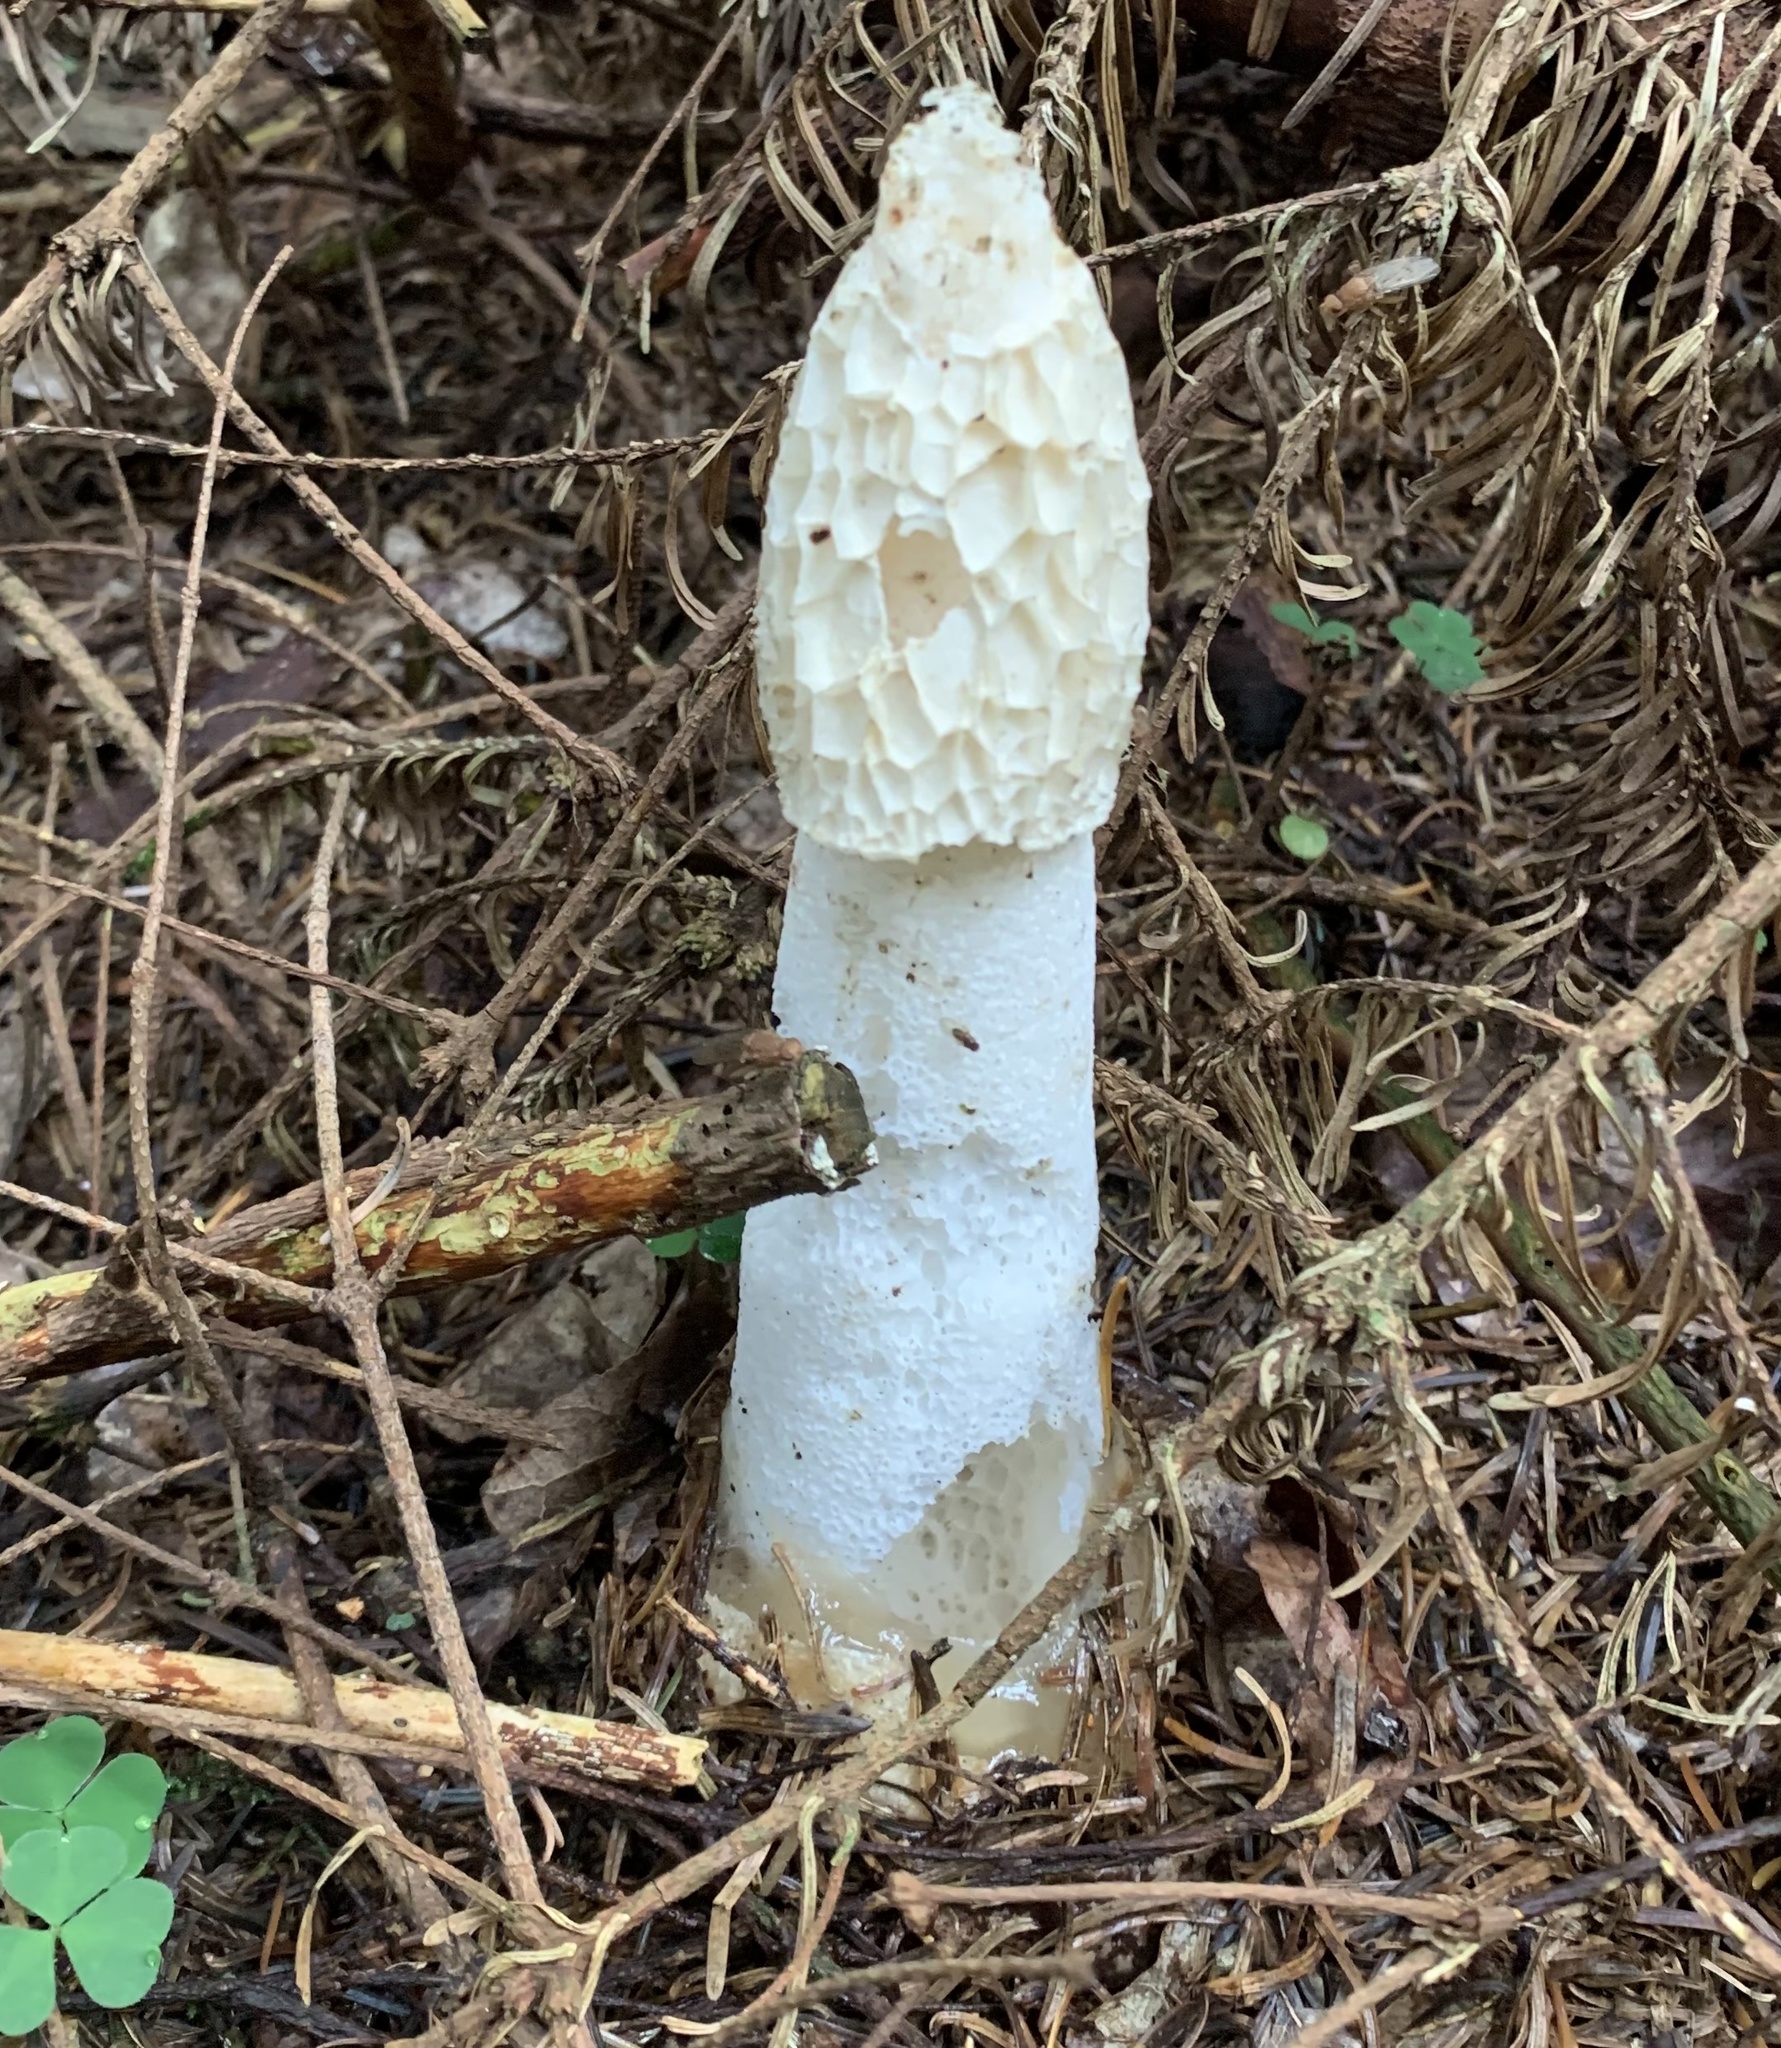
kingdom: Fungi
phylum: Basidiomycota
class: Agaricomycetes
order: Phallales
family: Phallaceae
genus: Phallus
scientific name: Phallus impudicus
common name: Common stinkhorn
